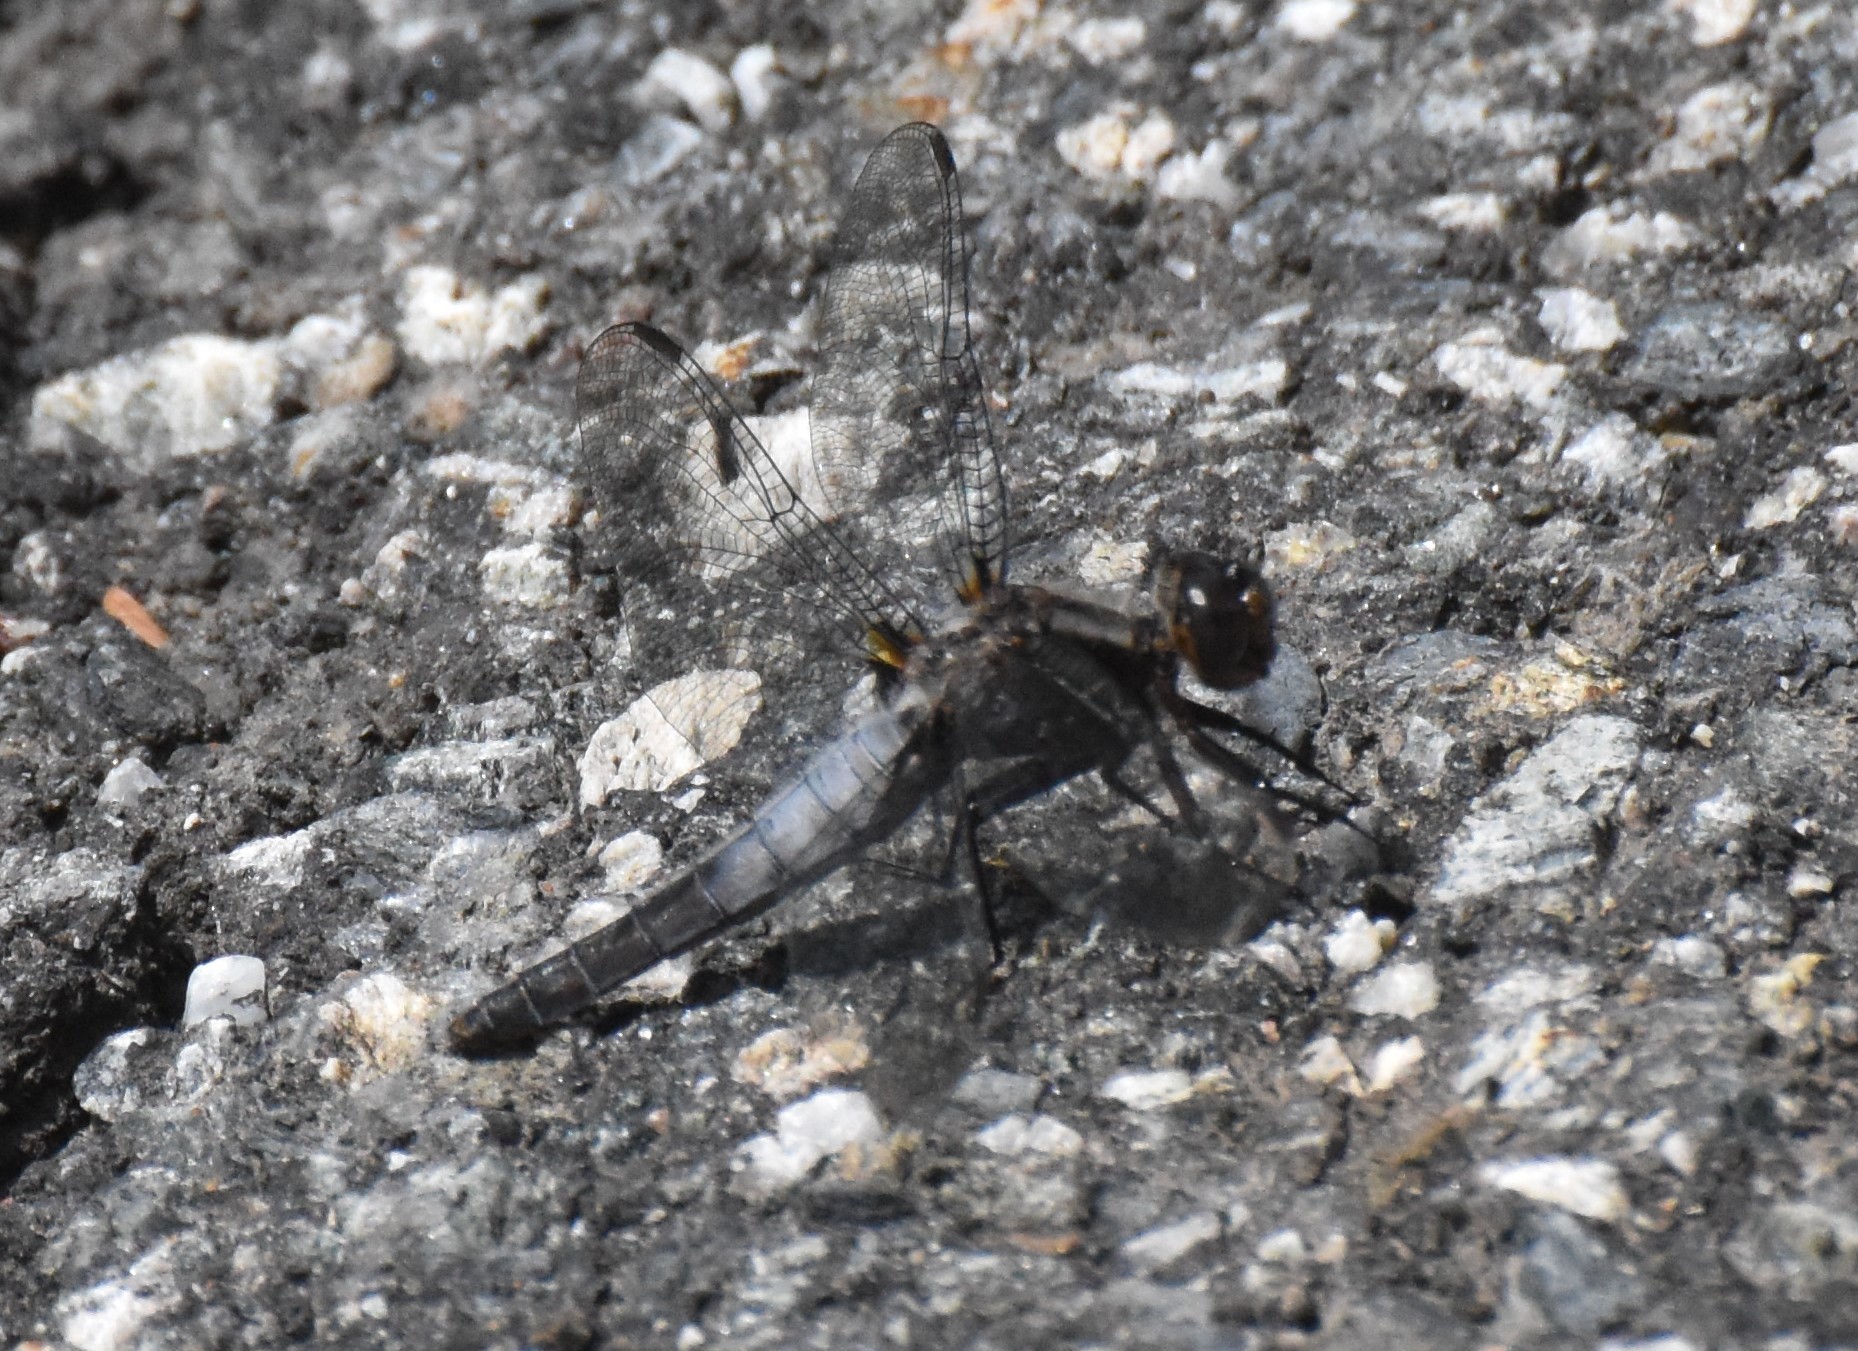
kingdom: Animalia
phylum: Arthropoda
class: Insecta
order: Odonata
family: Libellulidae
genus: Ladona
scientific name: Ladona julia
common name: Chalk-fronted corporal
